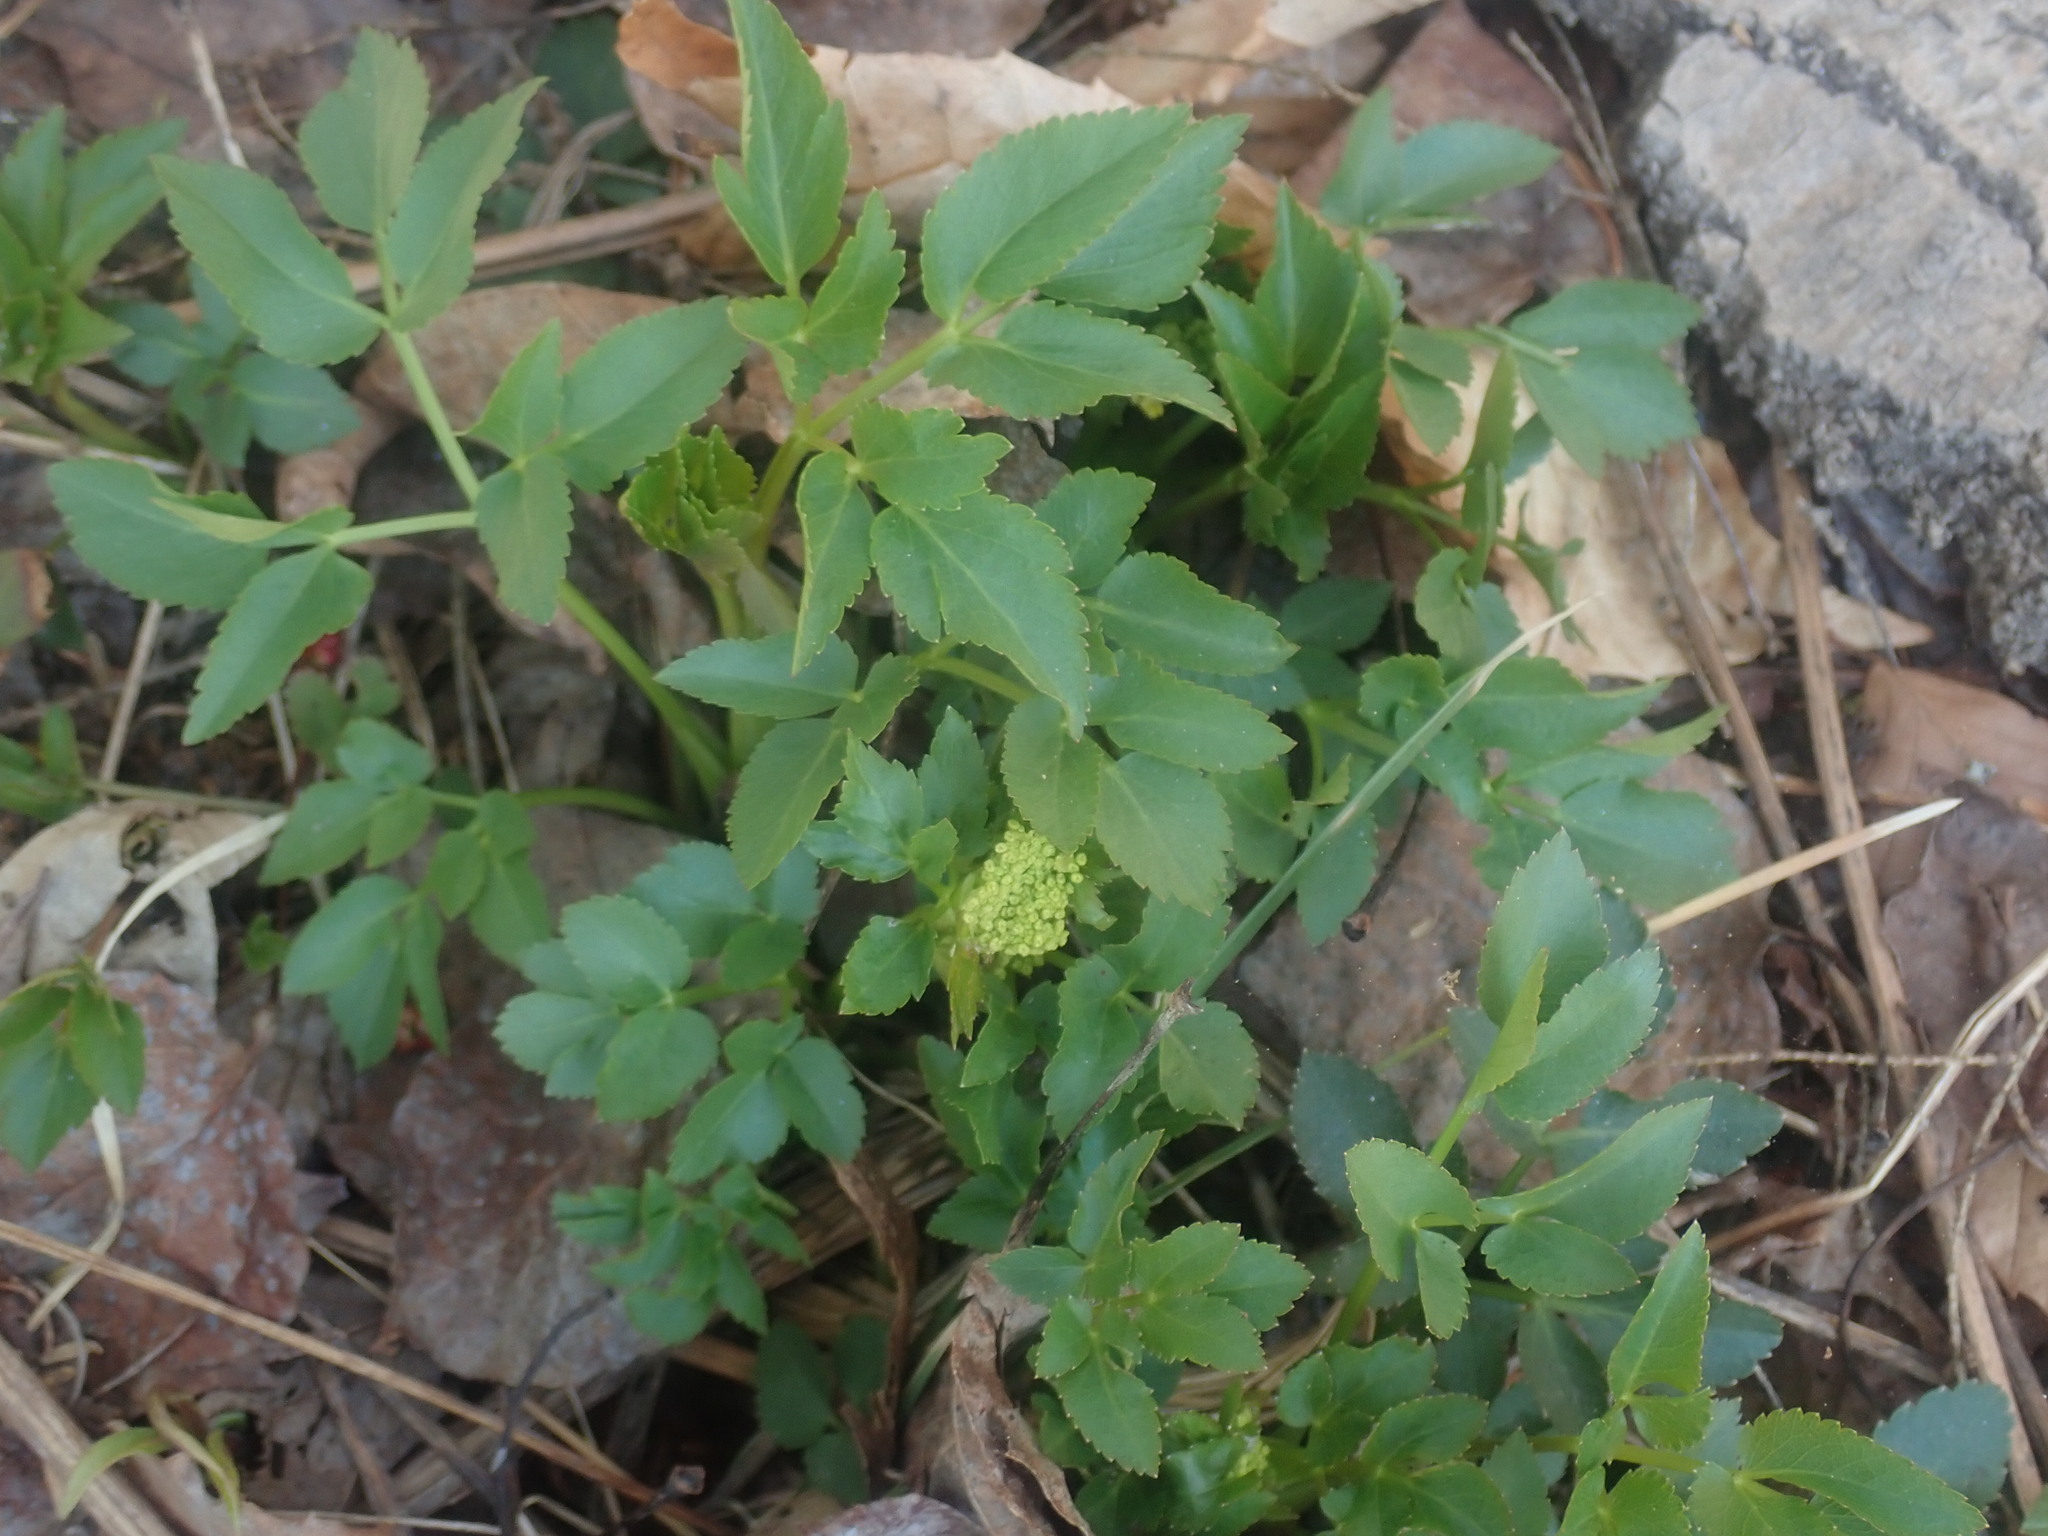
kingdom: Plantae
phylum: Tracheophyta
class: Magnoliopsida
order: Apiales
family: Apiaceae
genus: Zizia
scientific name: Zizia aurea
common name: Golden alexanders
